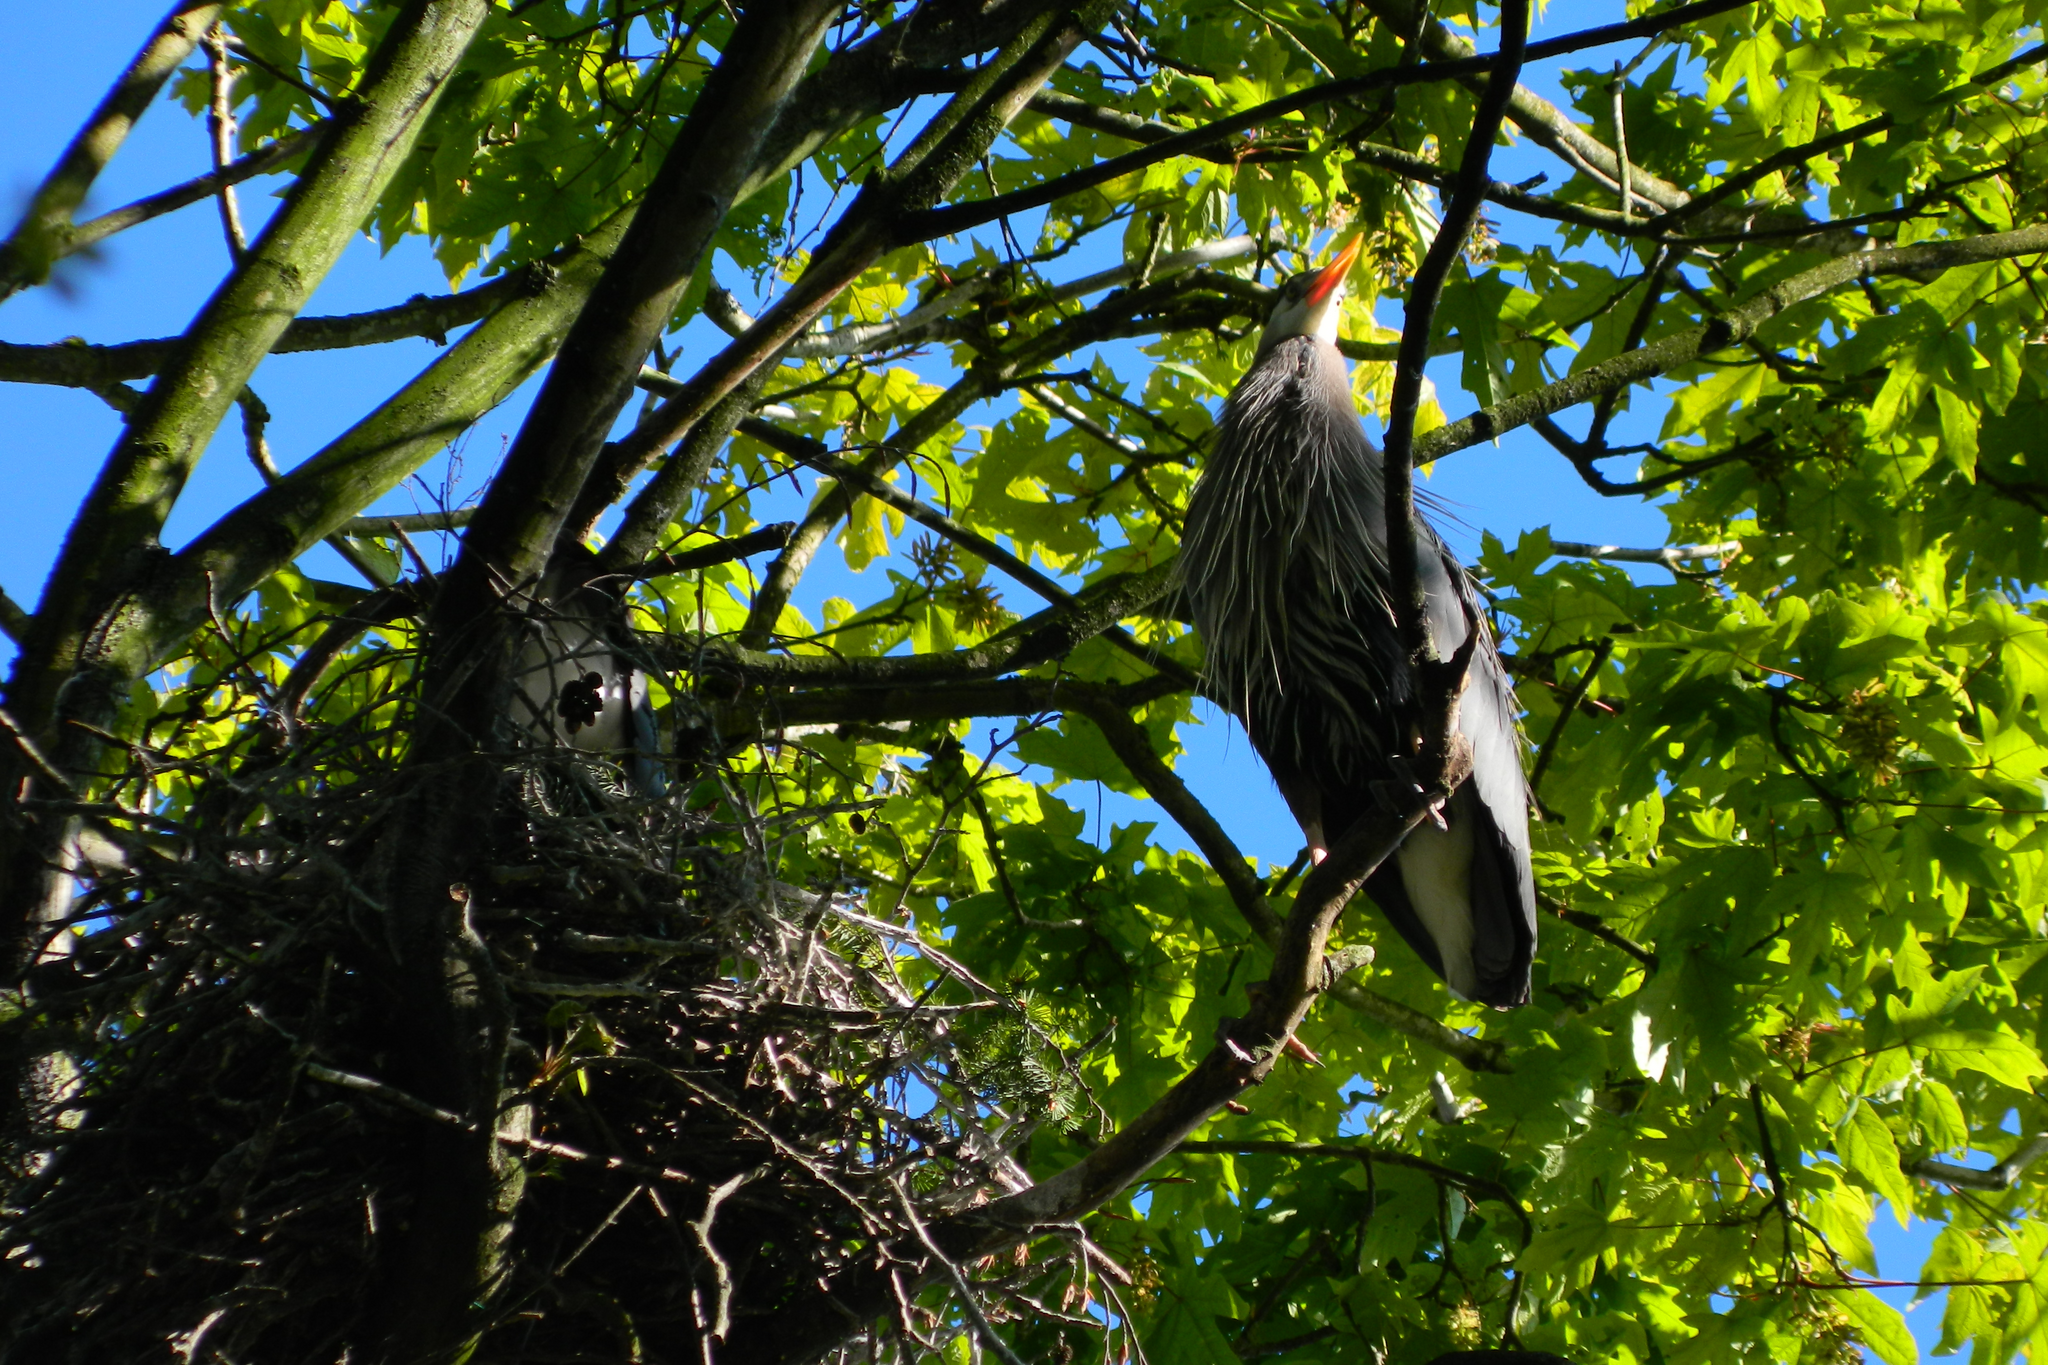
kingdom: Animalia
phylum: Chordata
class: Aves
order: Pelecaniformes
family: Ardeidae
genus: Ardea
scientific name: Ardea herodias
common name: Great blue heron
